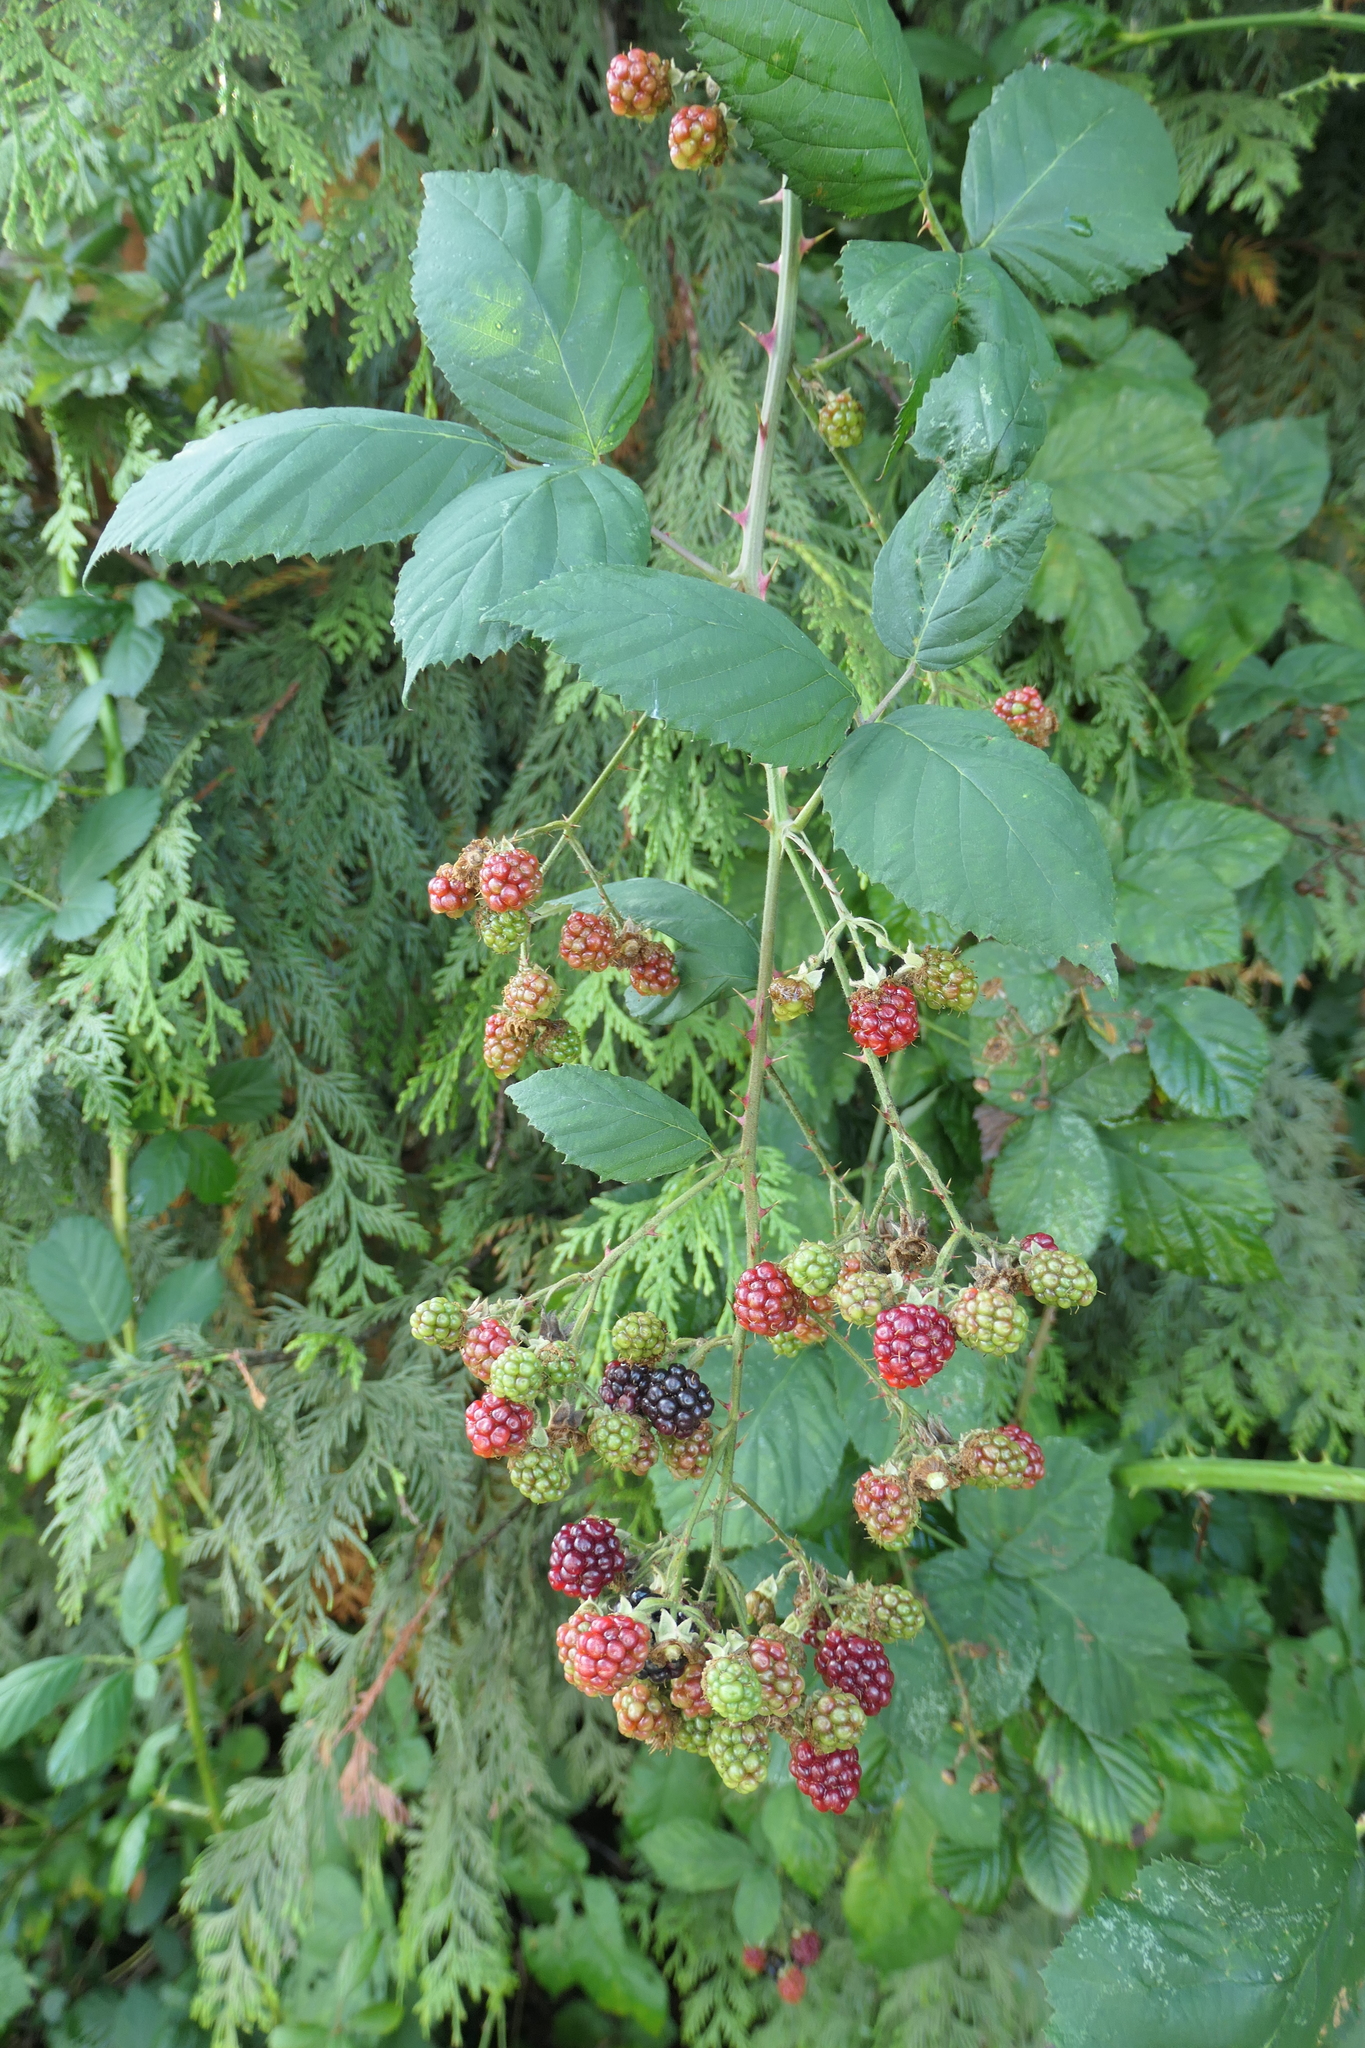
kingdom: Plantae
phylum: Tracheophyta
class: Magnoliopsida
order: Rosales
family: Rosaceae
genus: Rubus
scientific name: Rubus bifrons
